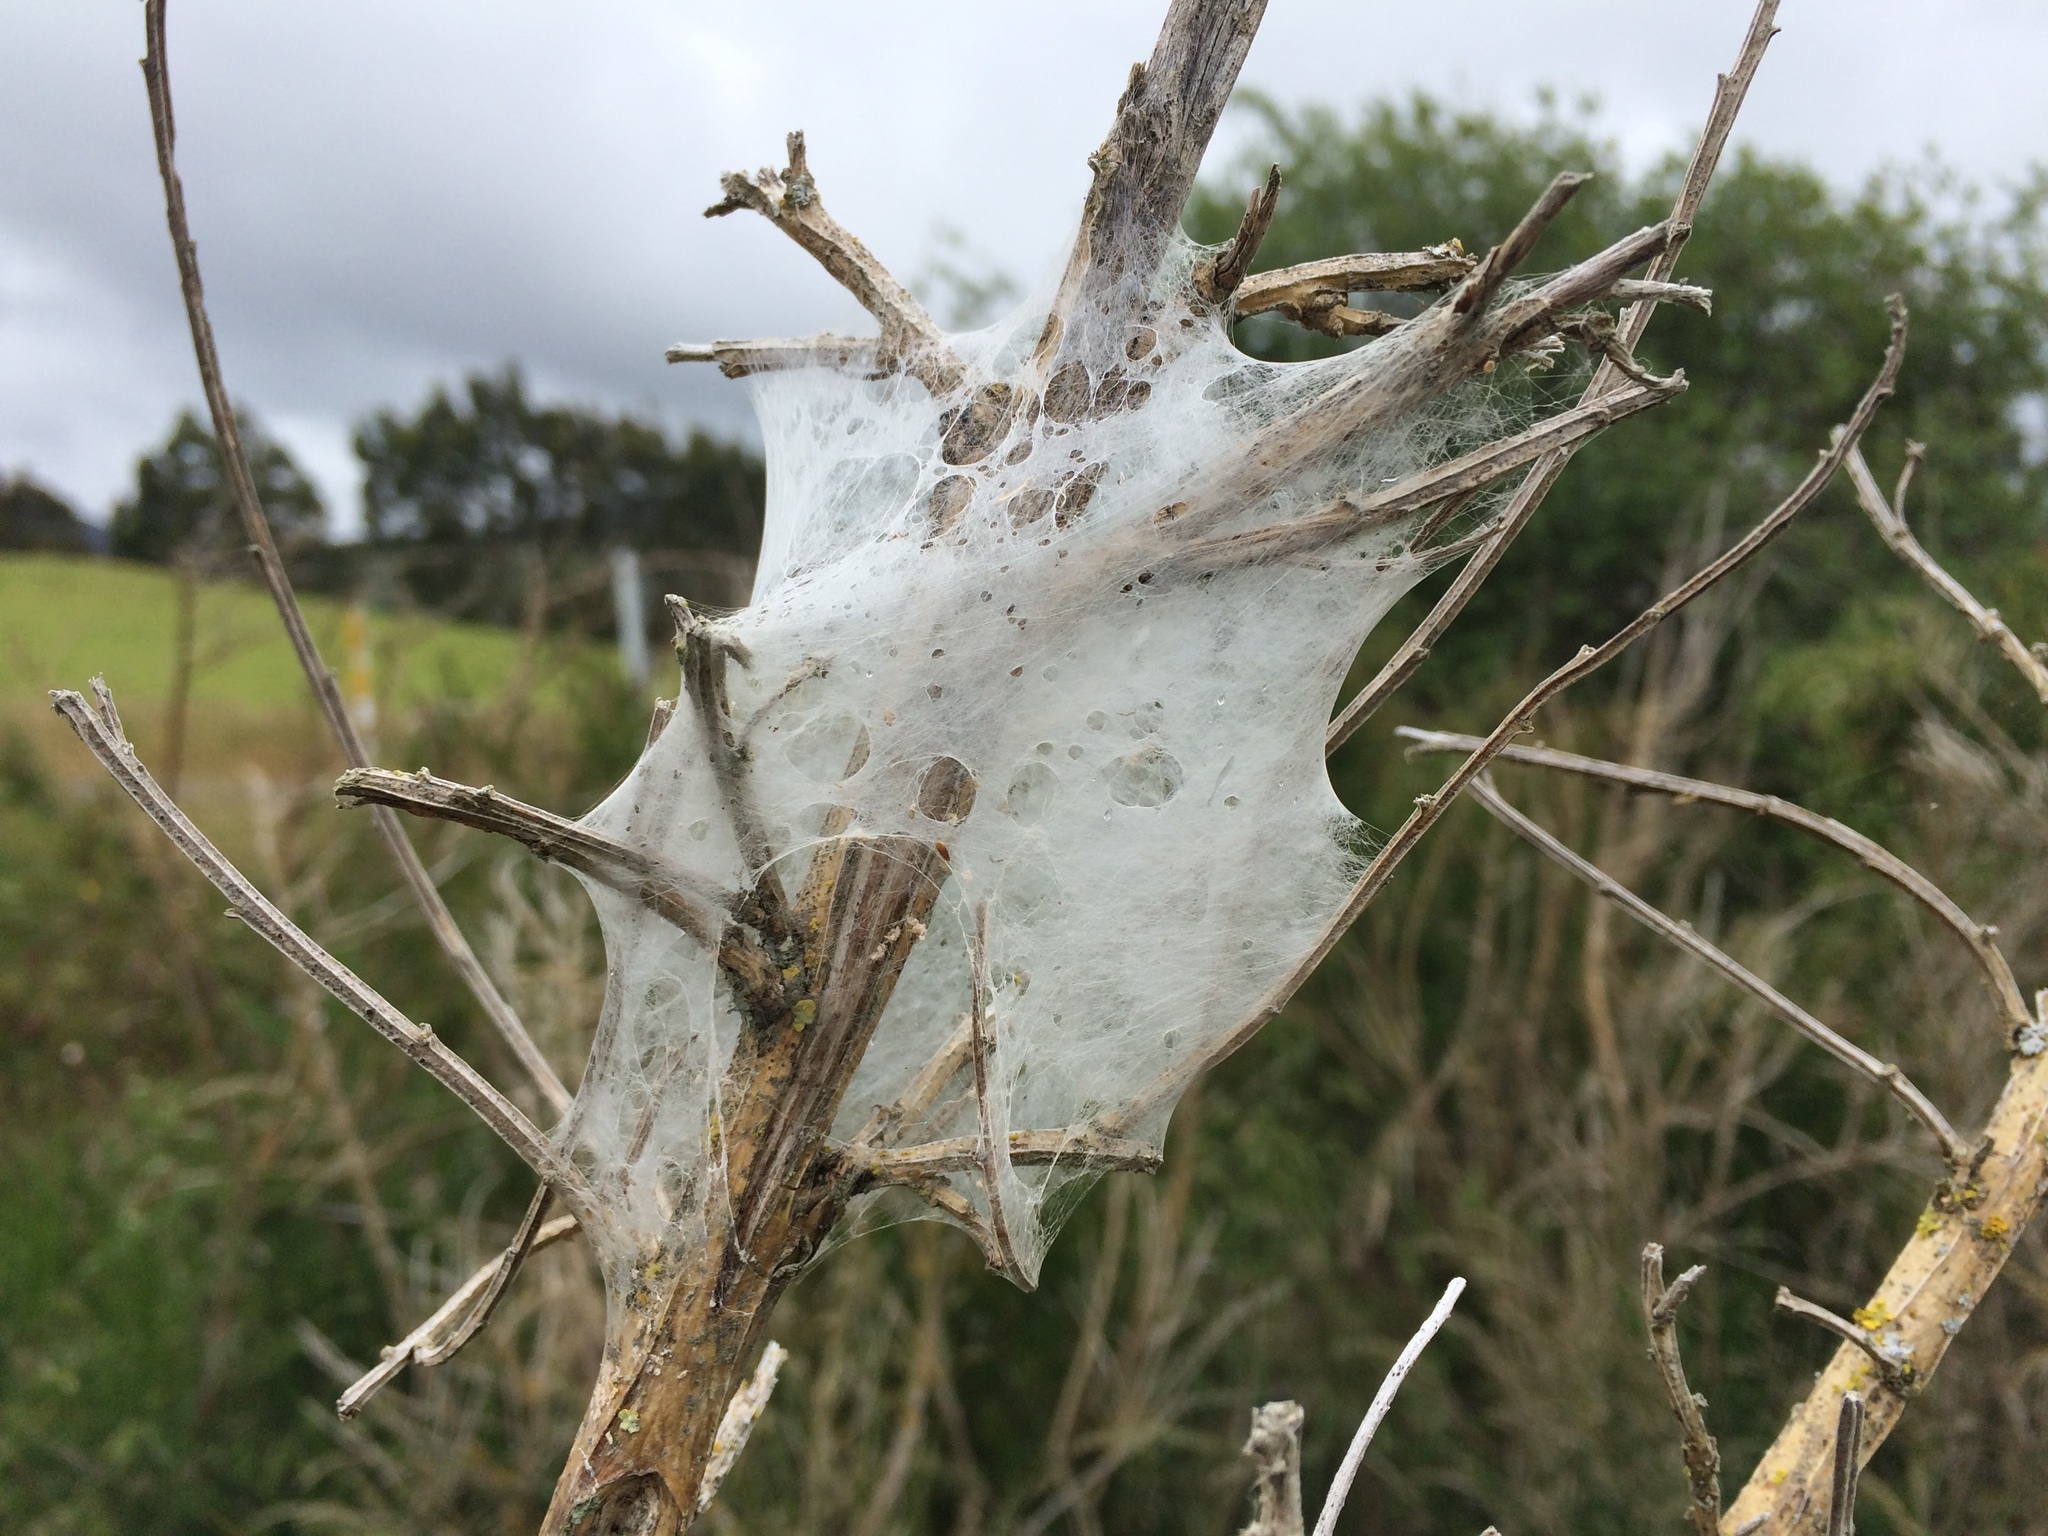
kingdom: Animalia
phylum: Arthropoda
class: Arachnida
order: Araneae
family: Pisauridae
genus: Dolomedes
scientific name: Dolomedes minor
